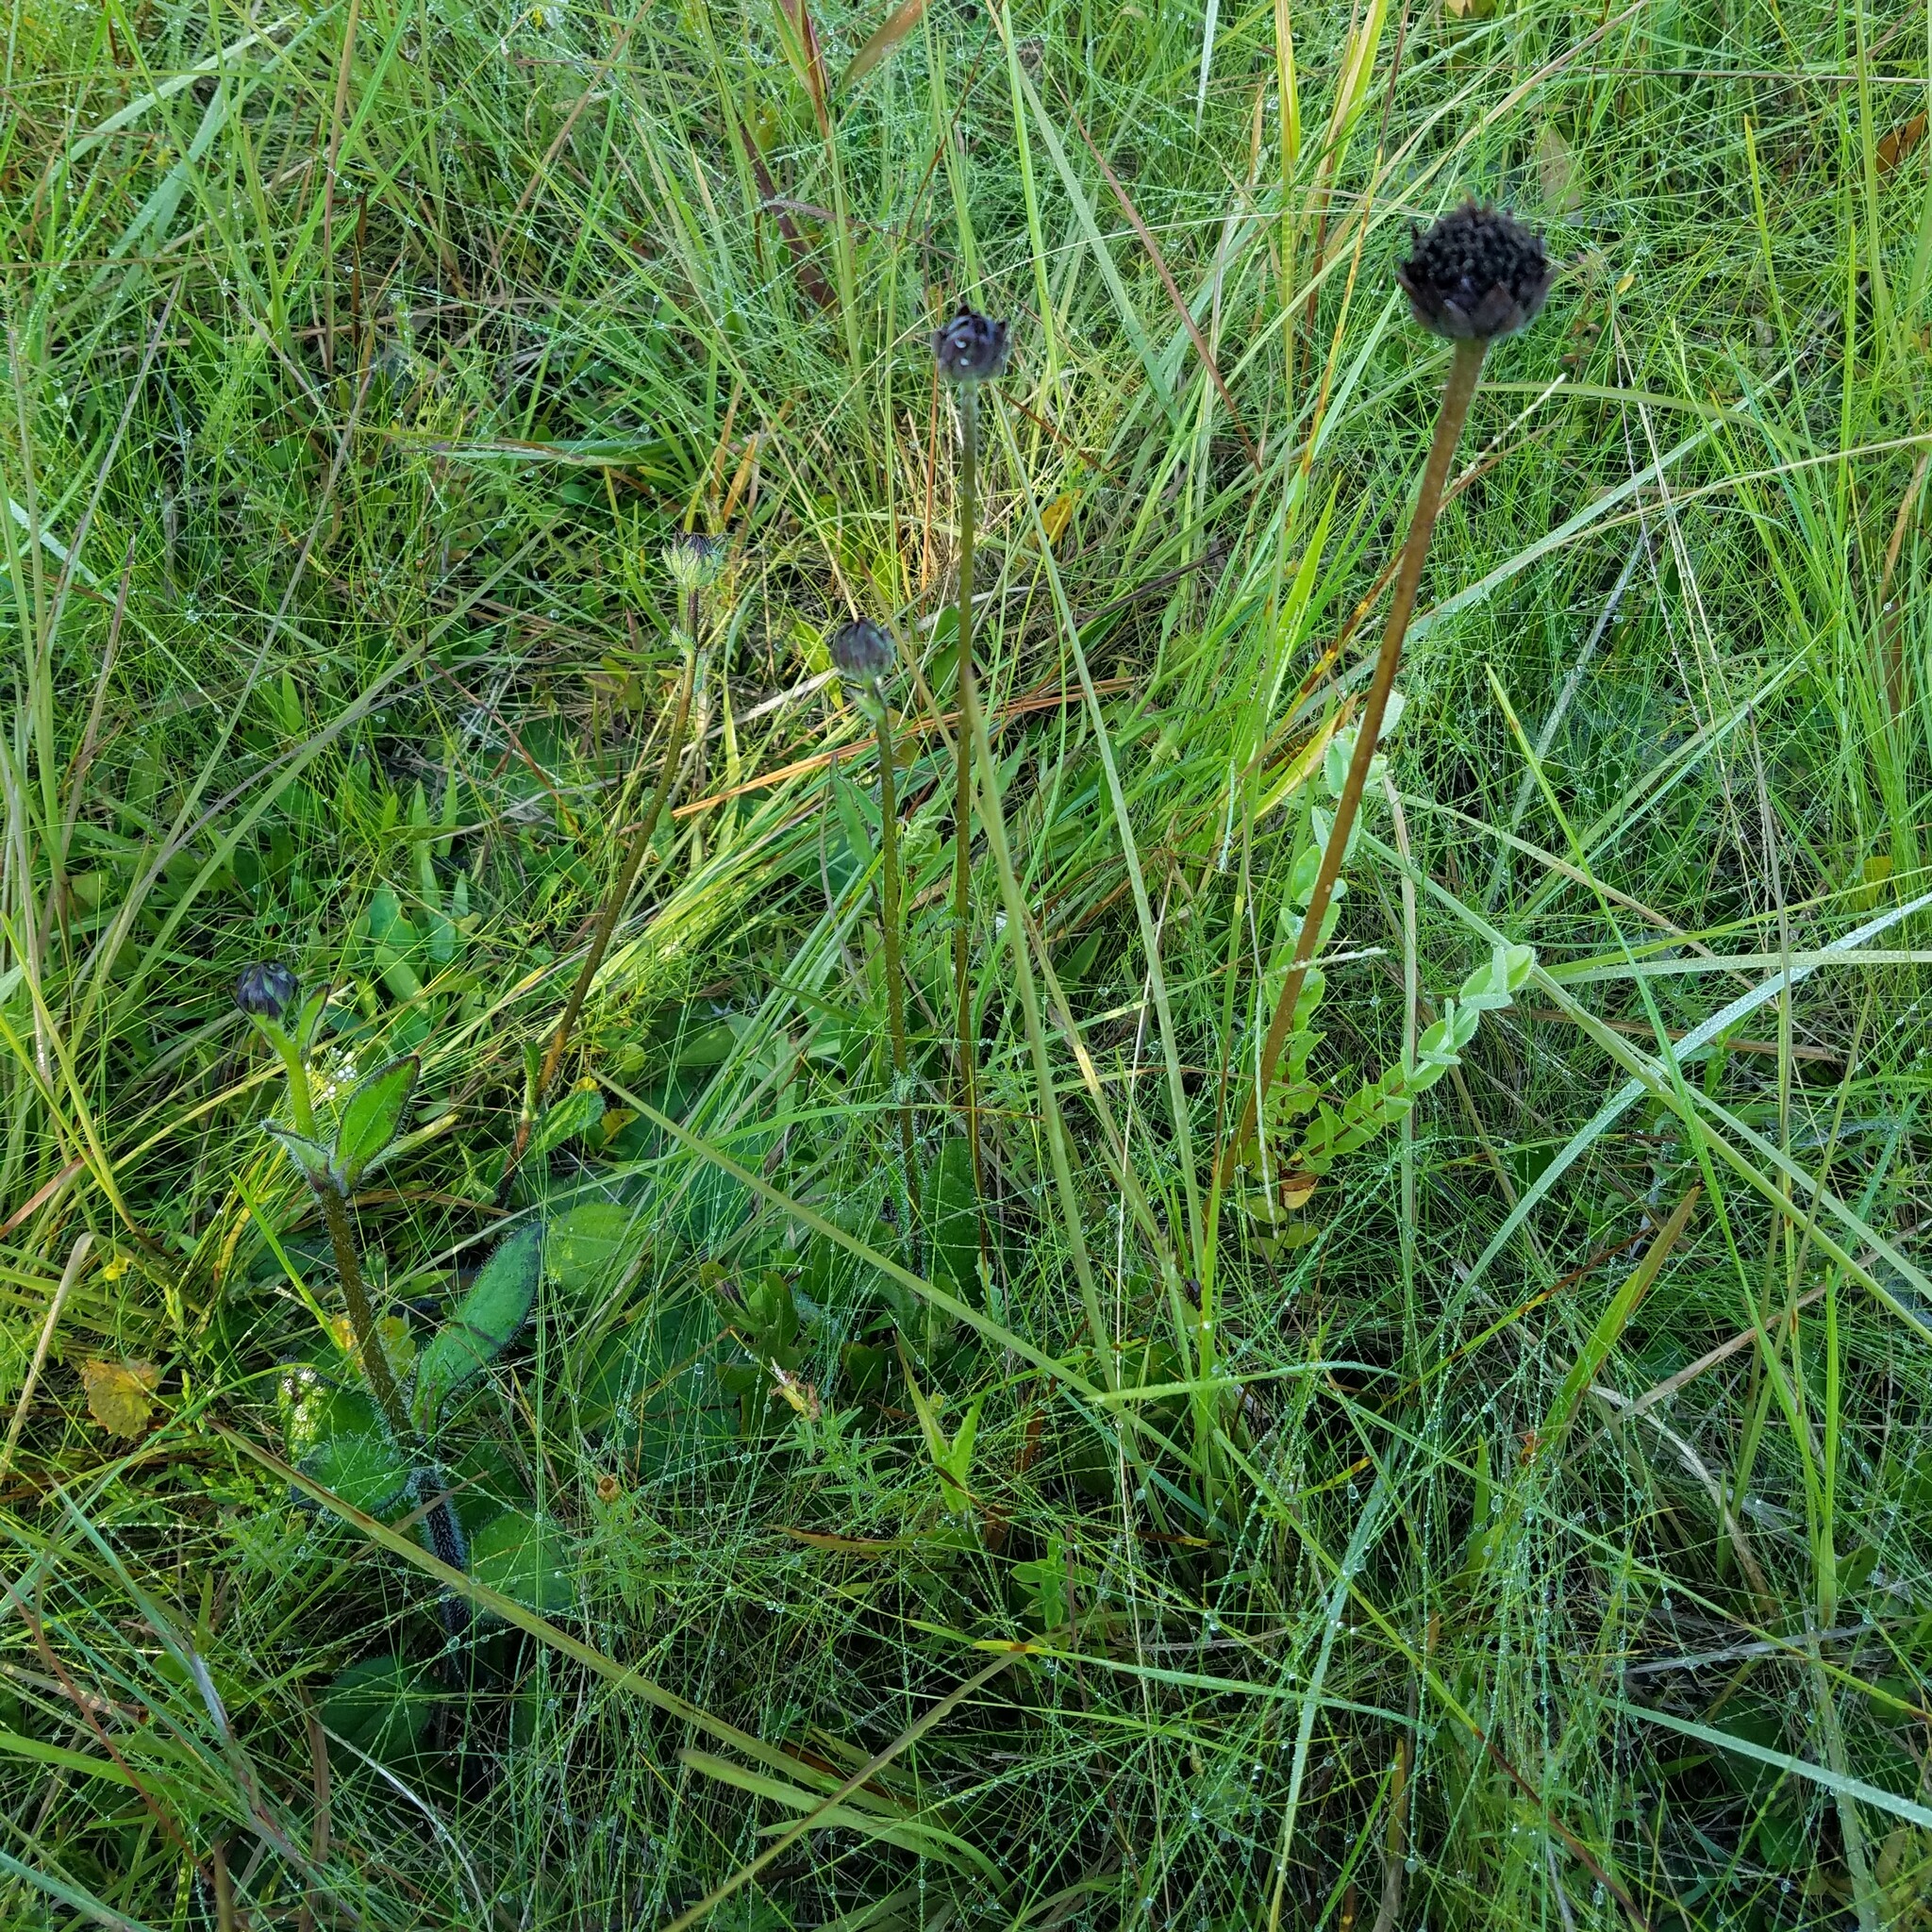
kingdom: Plantae
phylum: Tracheophyta
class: Magnoliopsida
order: Asterales
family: Asteraceae
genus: Helianthus
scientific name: Helianthus radula
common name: Pineland sunflower
